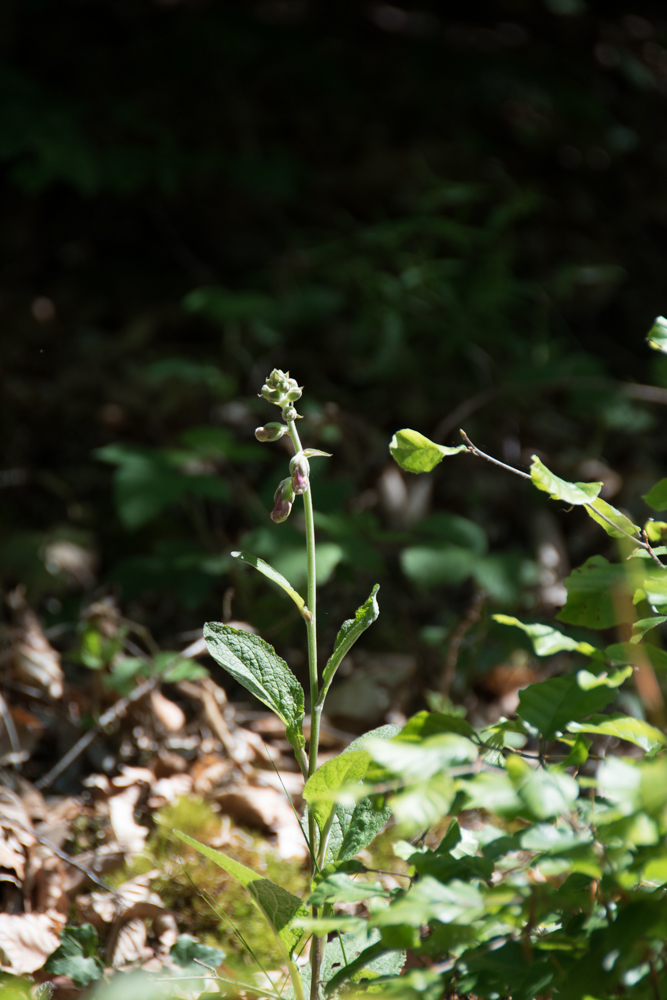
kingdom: Plantae
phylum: Tracheophyta
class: Magnoliopsida
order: Lamiales
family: Plantaginaceae
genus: Digitalis
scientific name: Digitalis purpurea
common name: Foxglove
